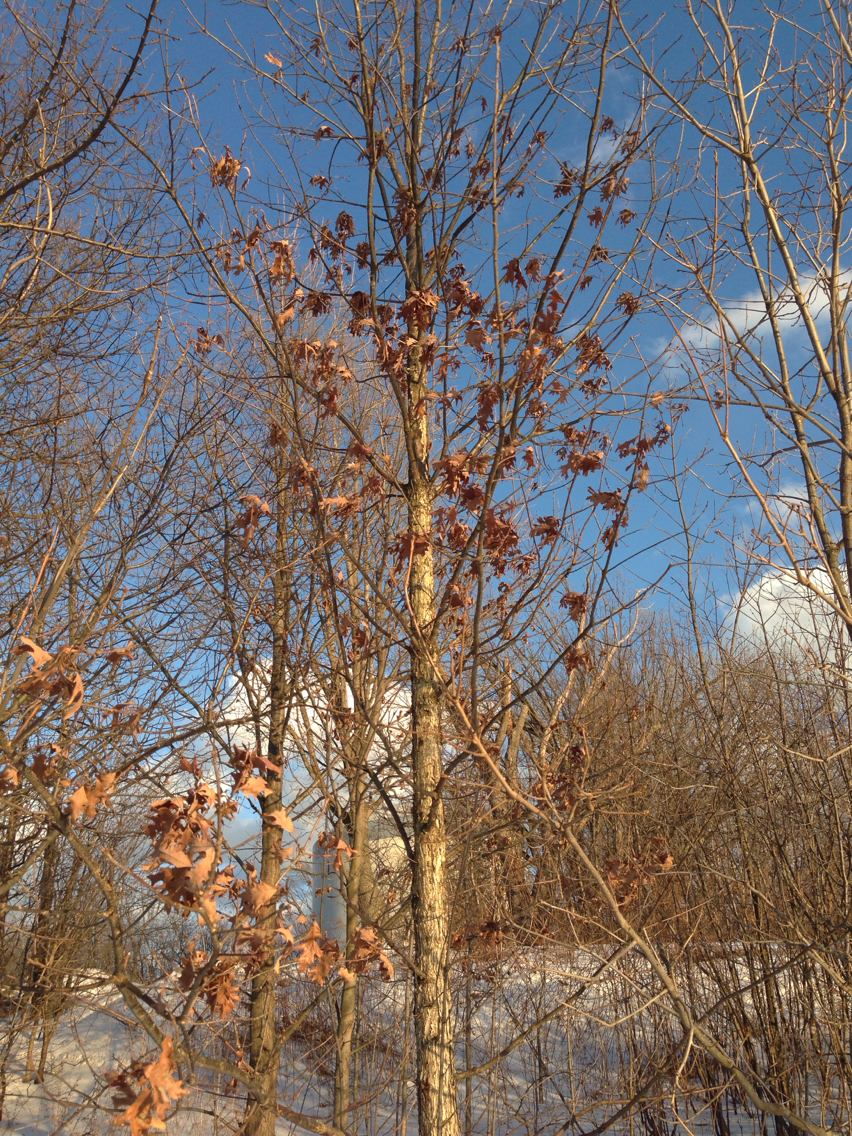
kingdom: Plantae
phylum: Tracheophyta
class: Magnoliopsida
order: Fagales
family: Fagaceae
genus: Quercus
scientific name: Quercus alba
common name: White oak
